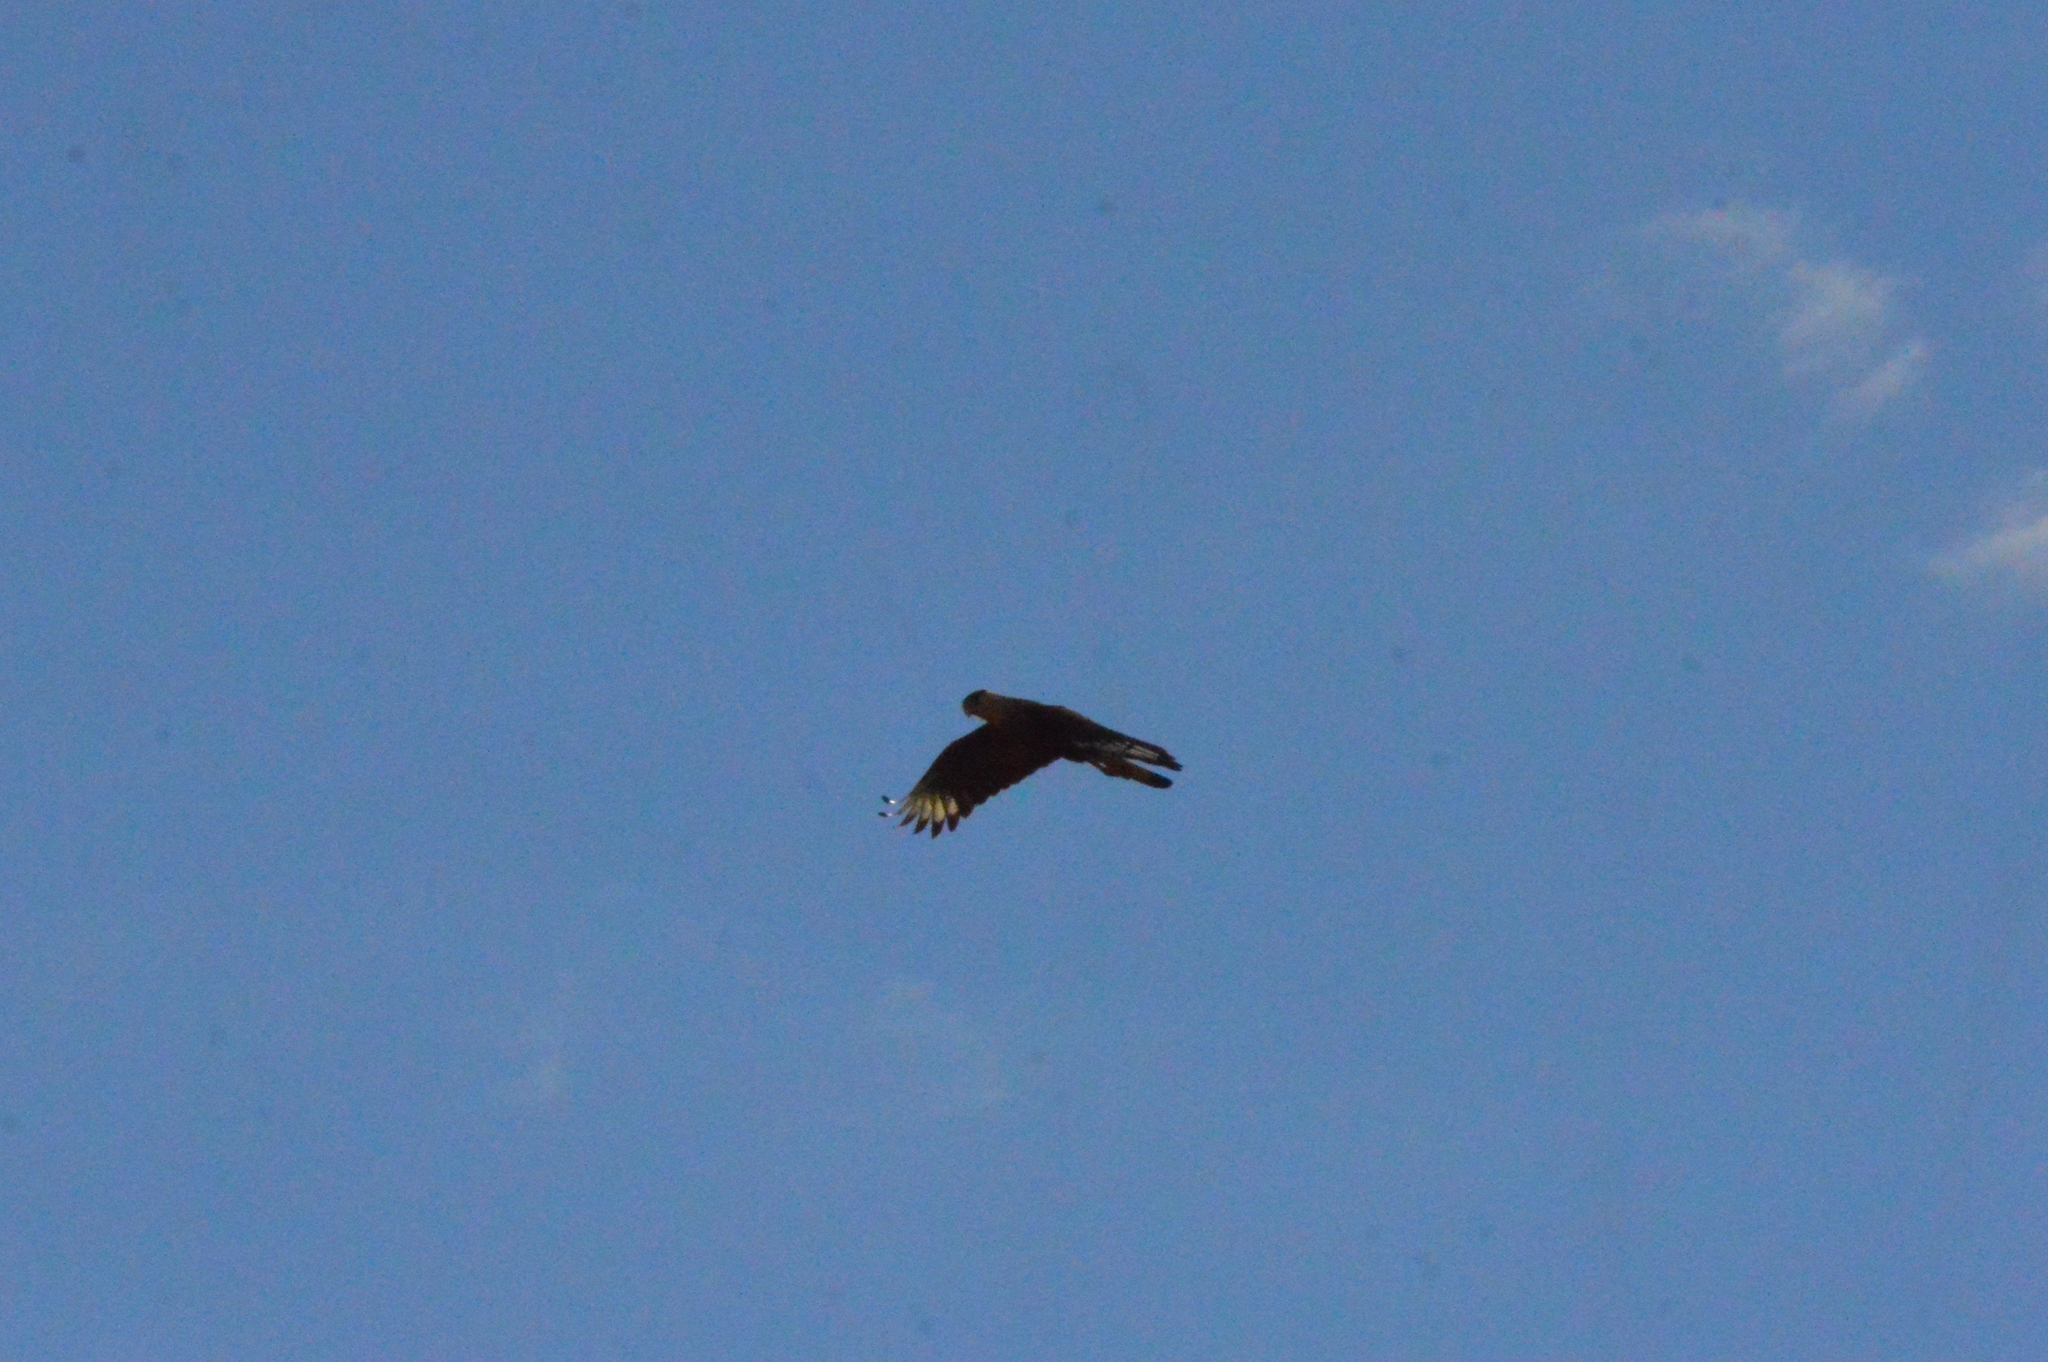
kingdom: Animalia
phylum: Chordata
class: Aves
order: Falconiformes
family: Falconidae
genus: Caracara
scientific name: Caracara plancus
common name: Southern caracara
